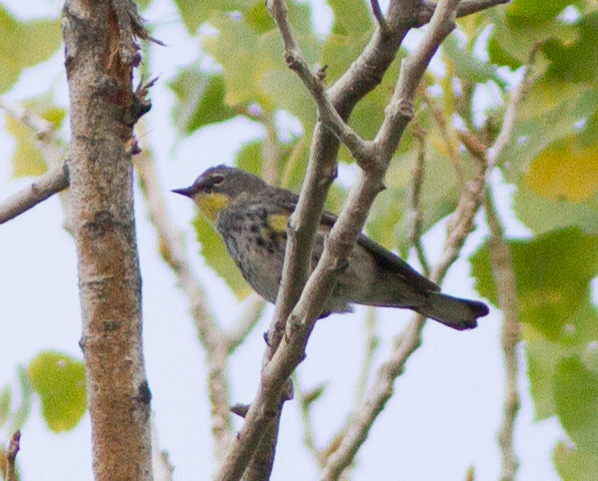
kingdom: Animalia
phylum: Chordata
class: Aves
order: Passeriformes
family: Parulidae
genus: Setophaga
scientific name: Setophaga auduboni
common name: Audubon's warbler
